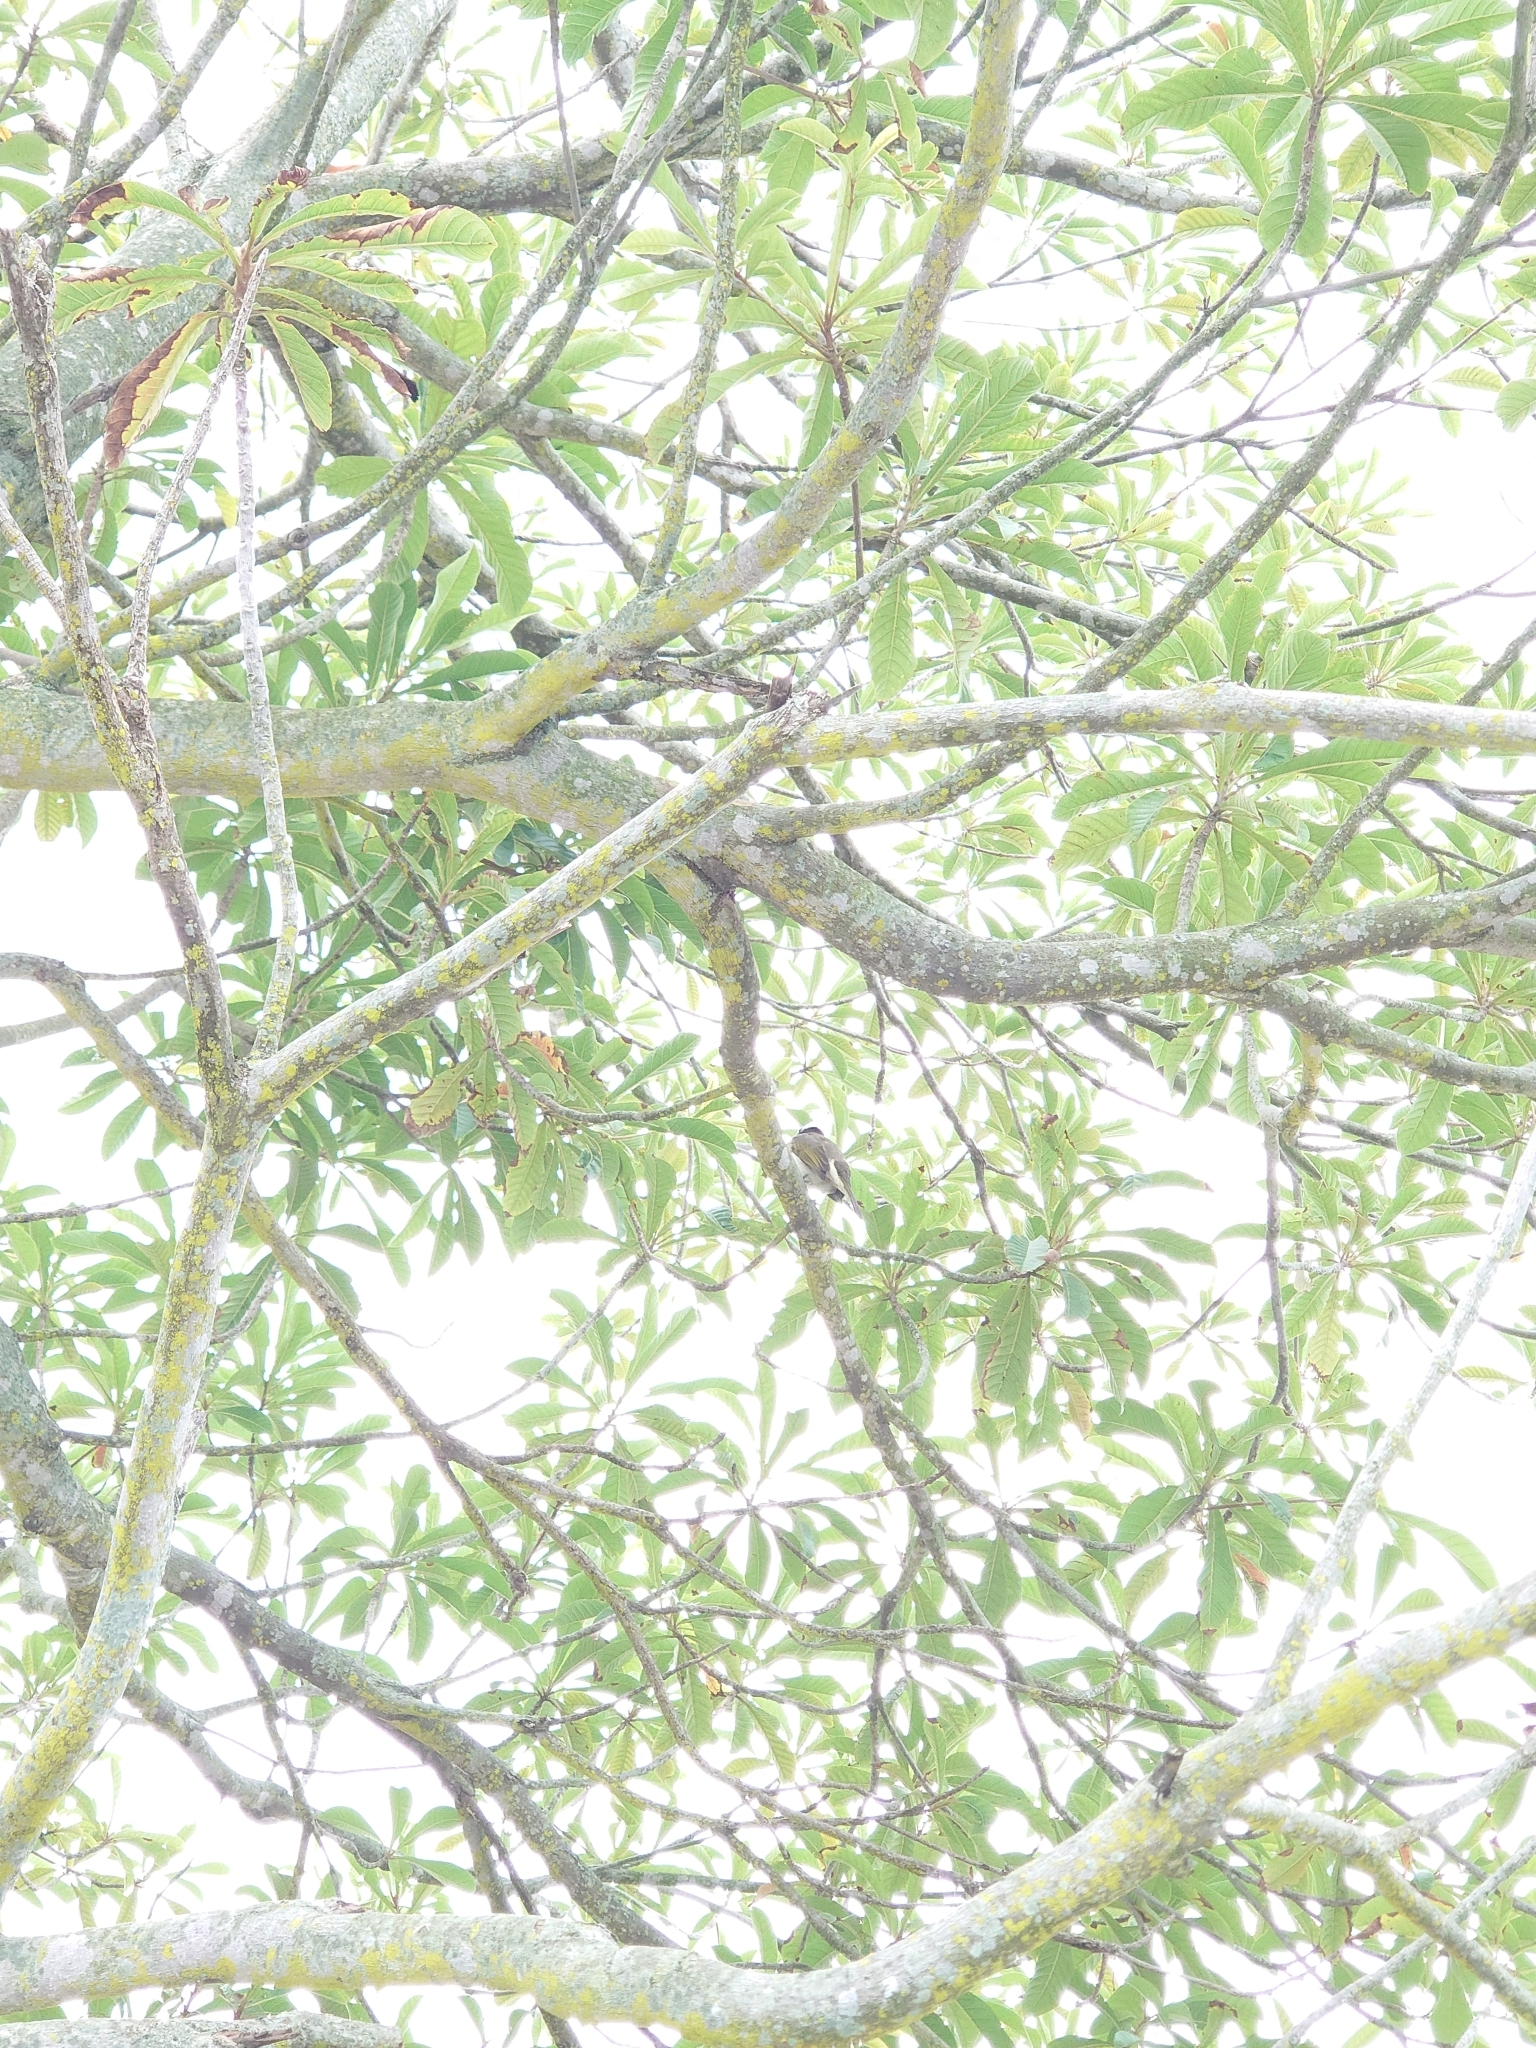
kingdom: Animalia
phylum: Chordata
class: Aves
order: Passeriformes
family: Pycnonotidae
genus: Pycnonotus
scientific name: Pycnonotus sinensis
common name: Light-vented bulbul
